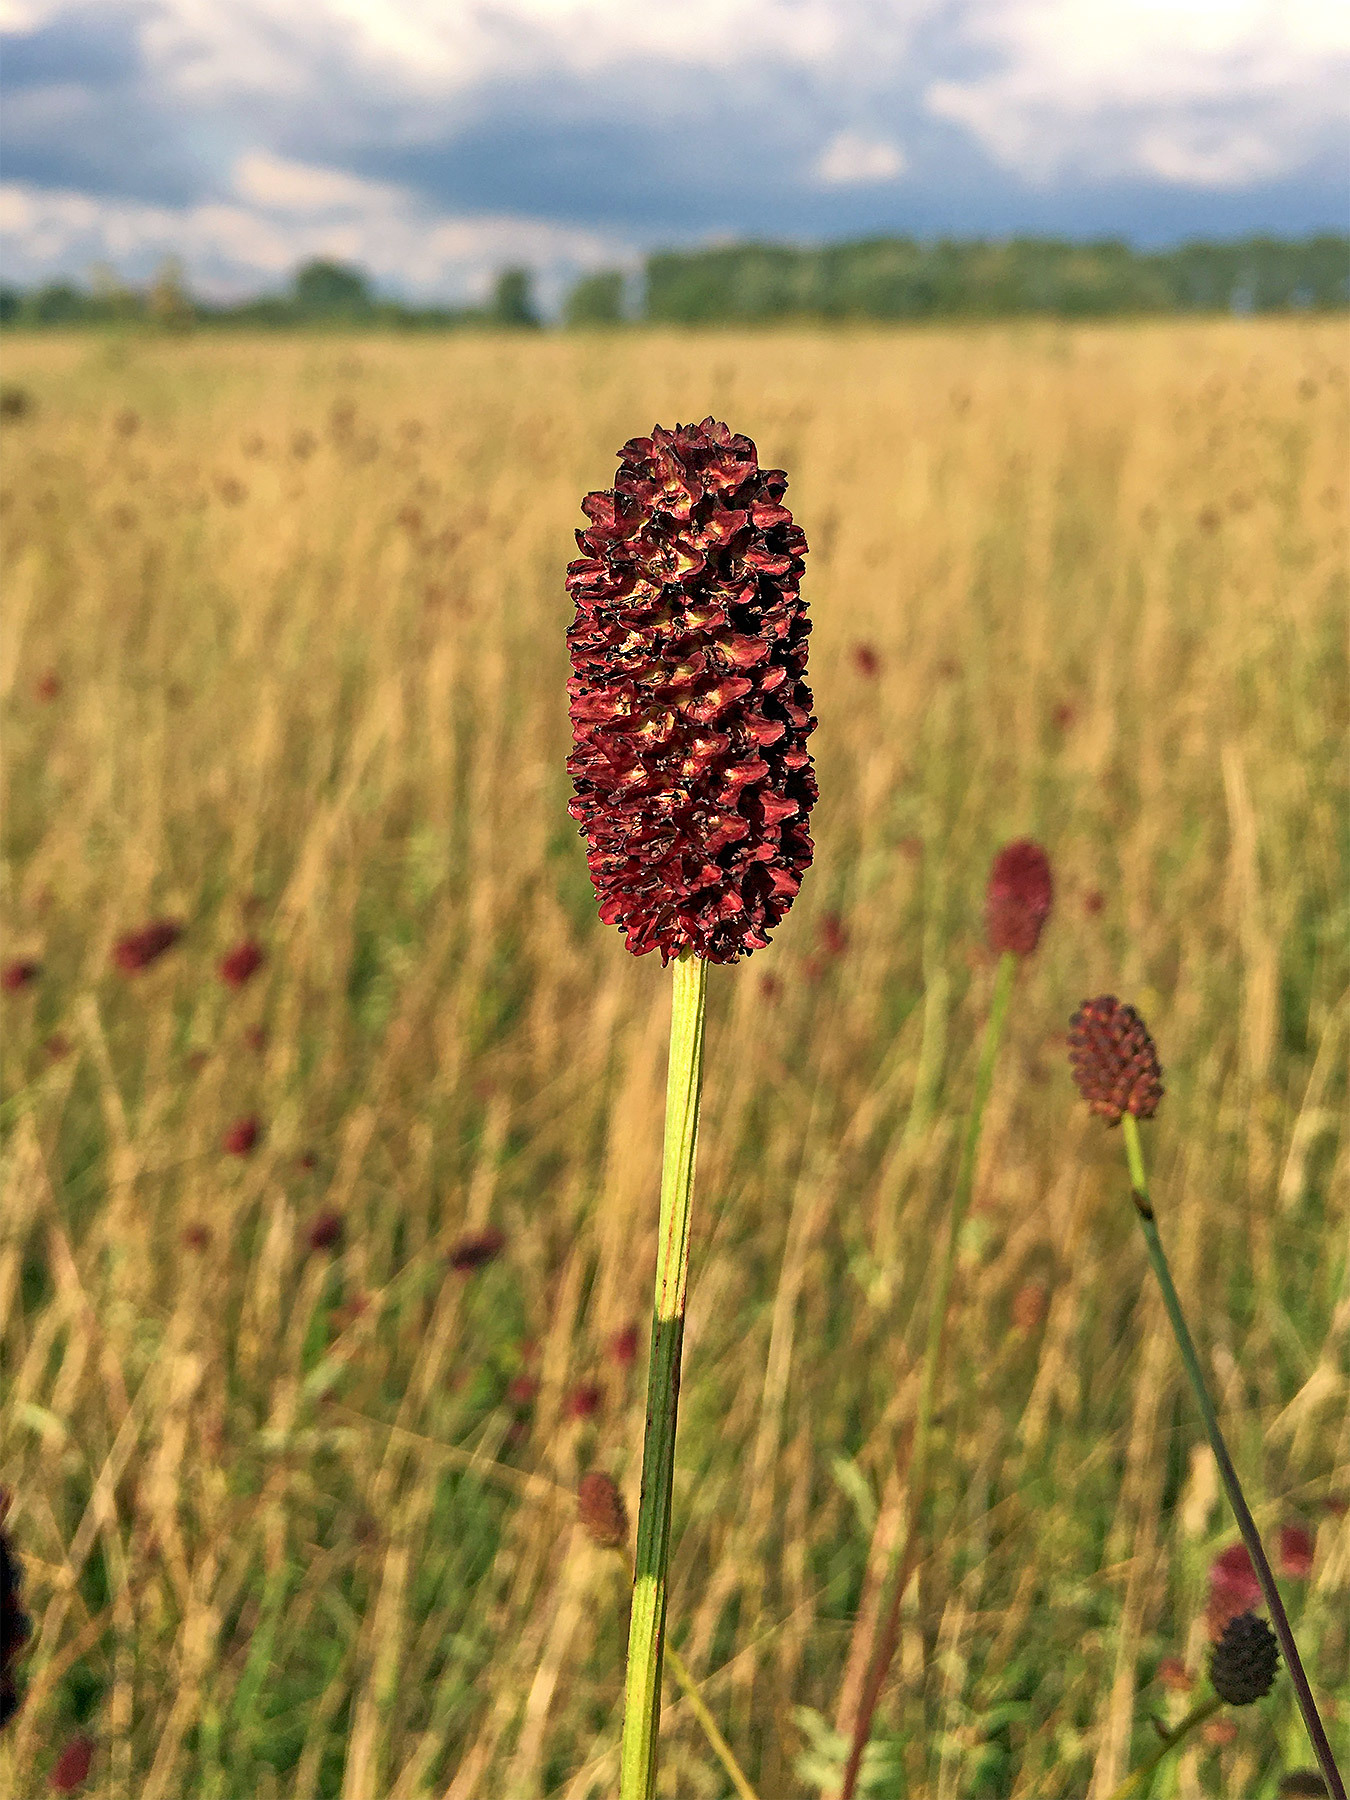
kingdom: Plantae
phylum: Tracheophyta
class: Magnoliopsida
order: Rosales
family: Rosaceae
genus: Sanguisorba
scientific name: Sanguisorba officinalis
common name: Great burnet
